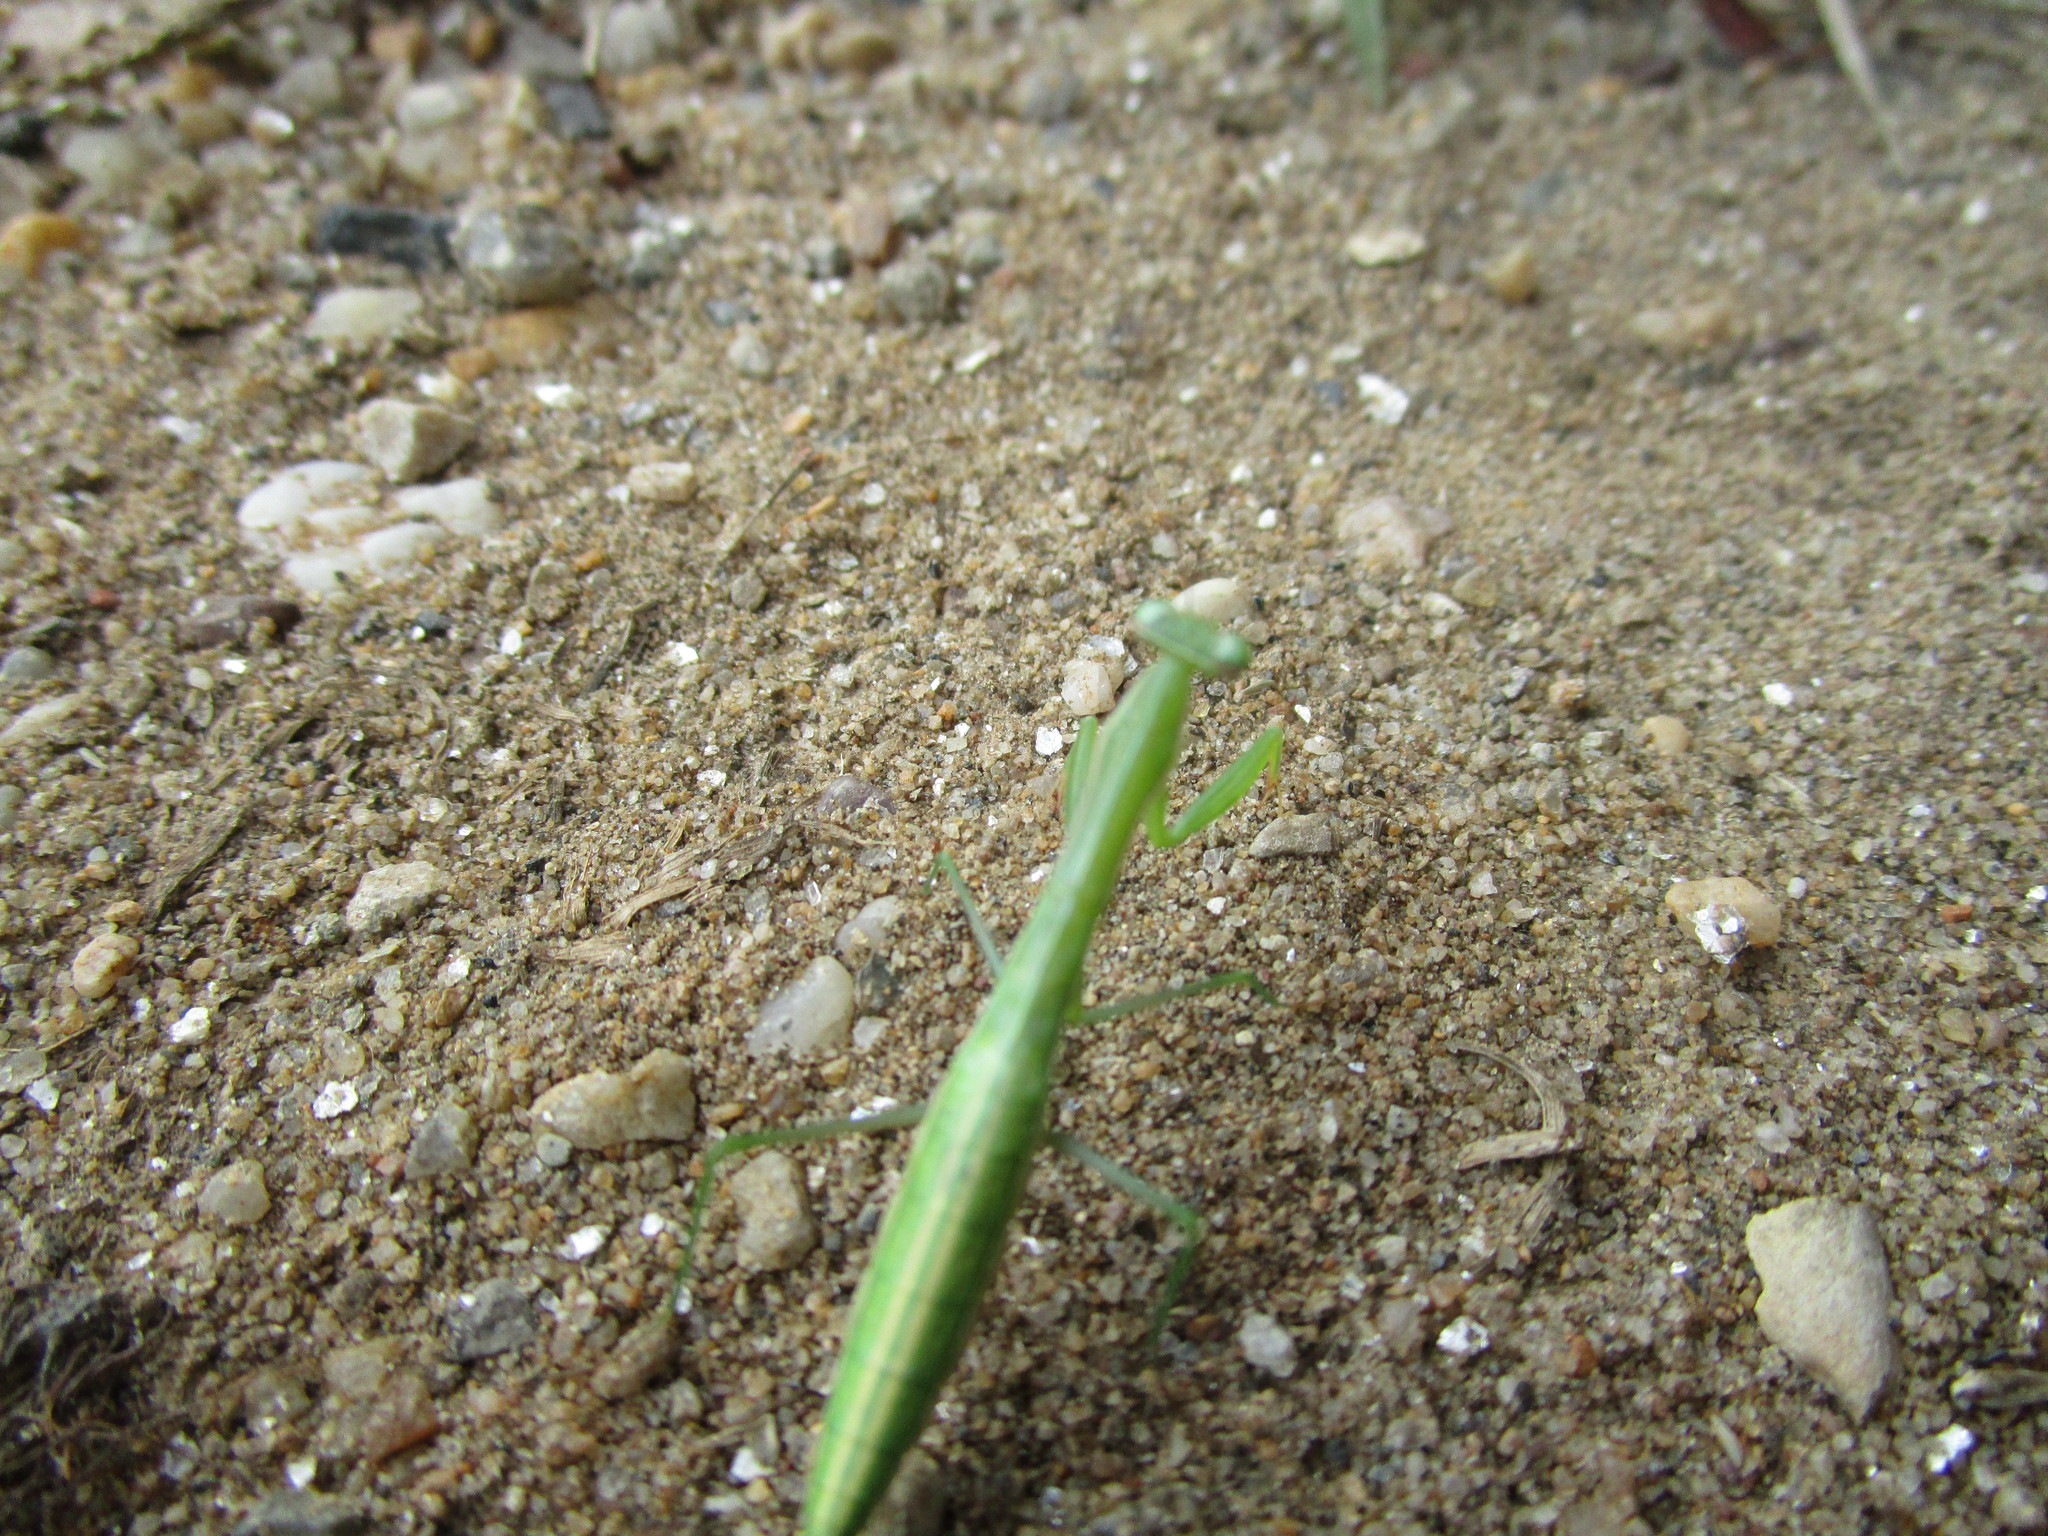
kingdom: Animalia
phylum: Arthropoda
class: Insecta
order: Mantodea
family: Mantidae
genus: Mantis
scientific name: Mantis religiosa
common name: Praying mantis
